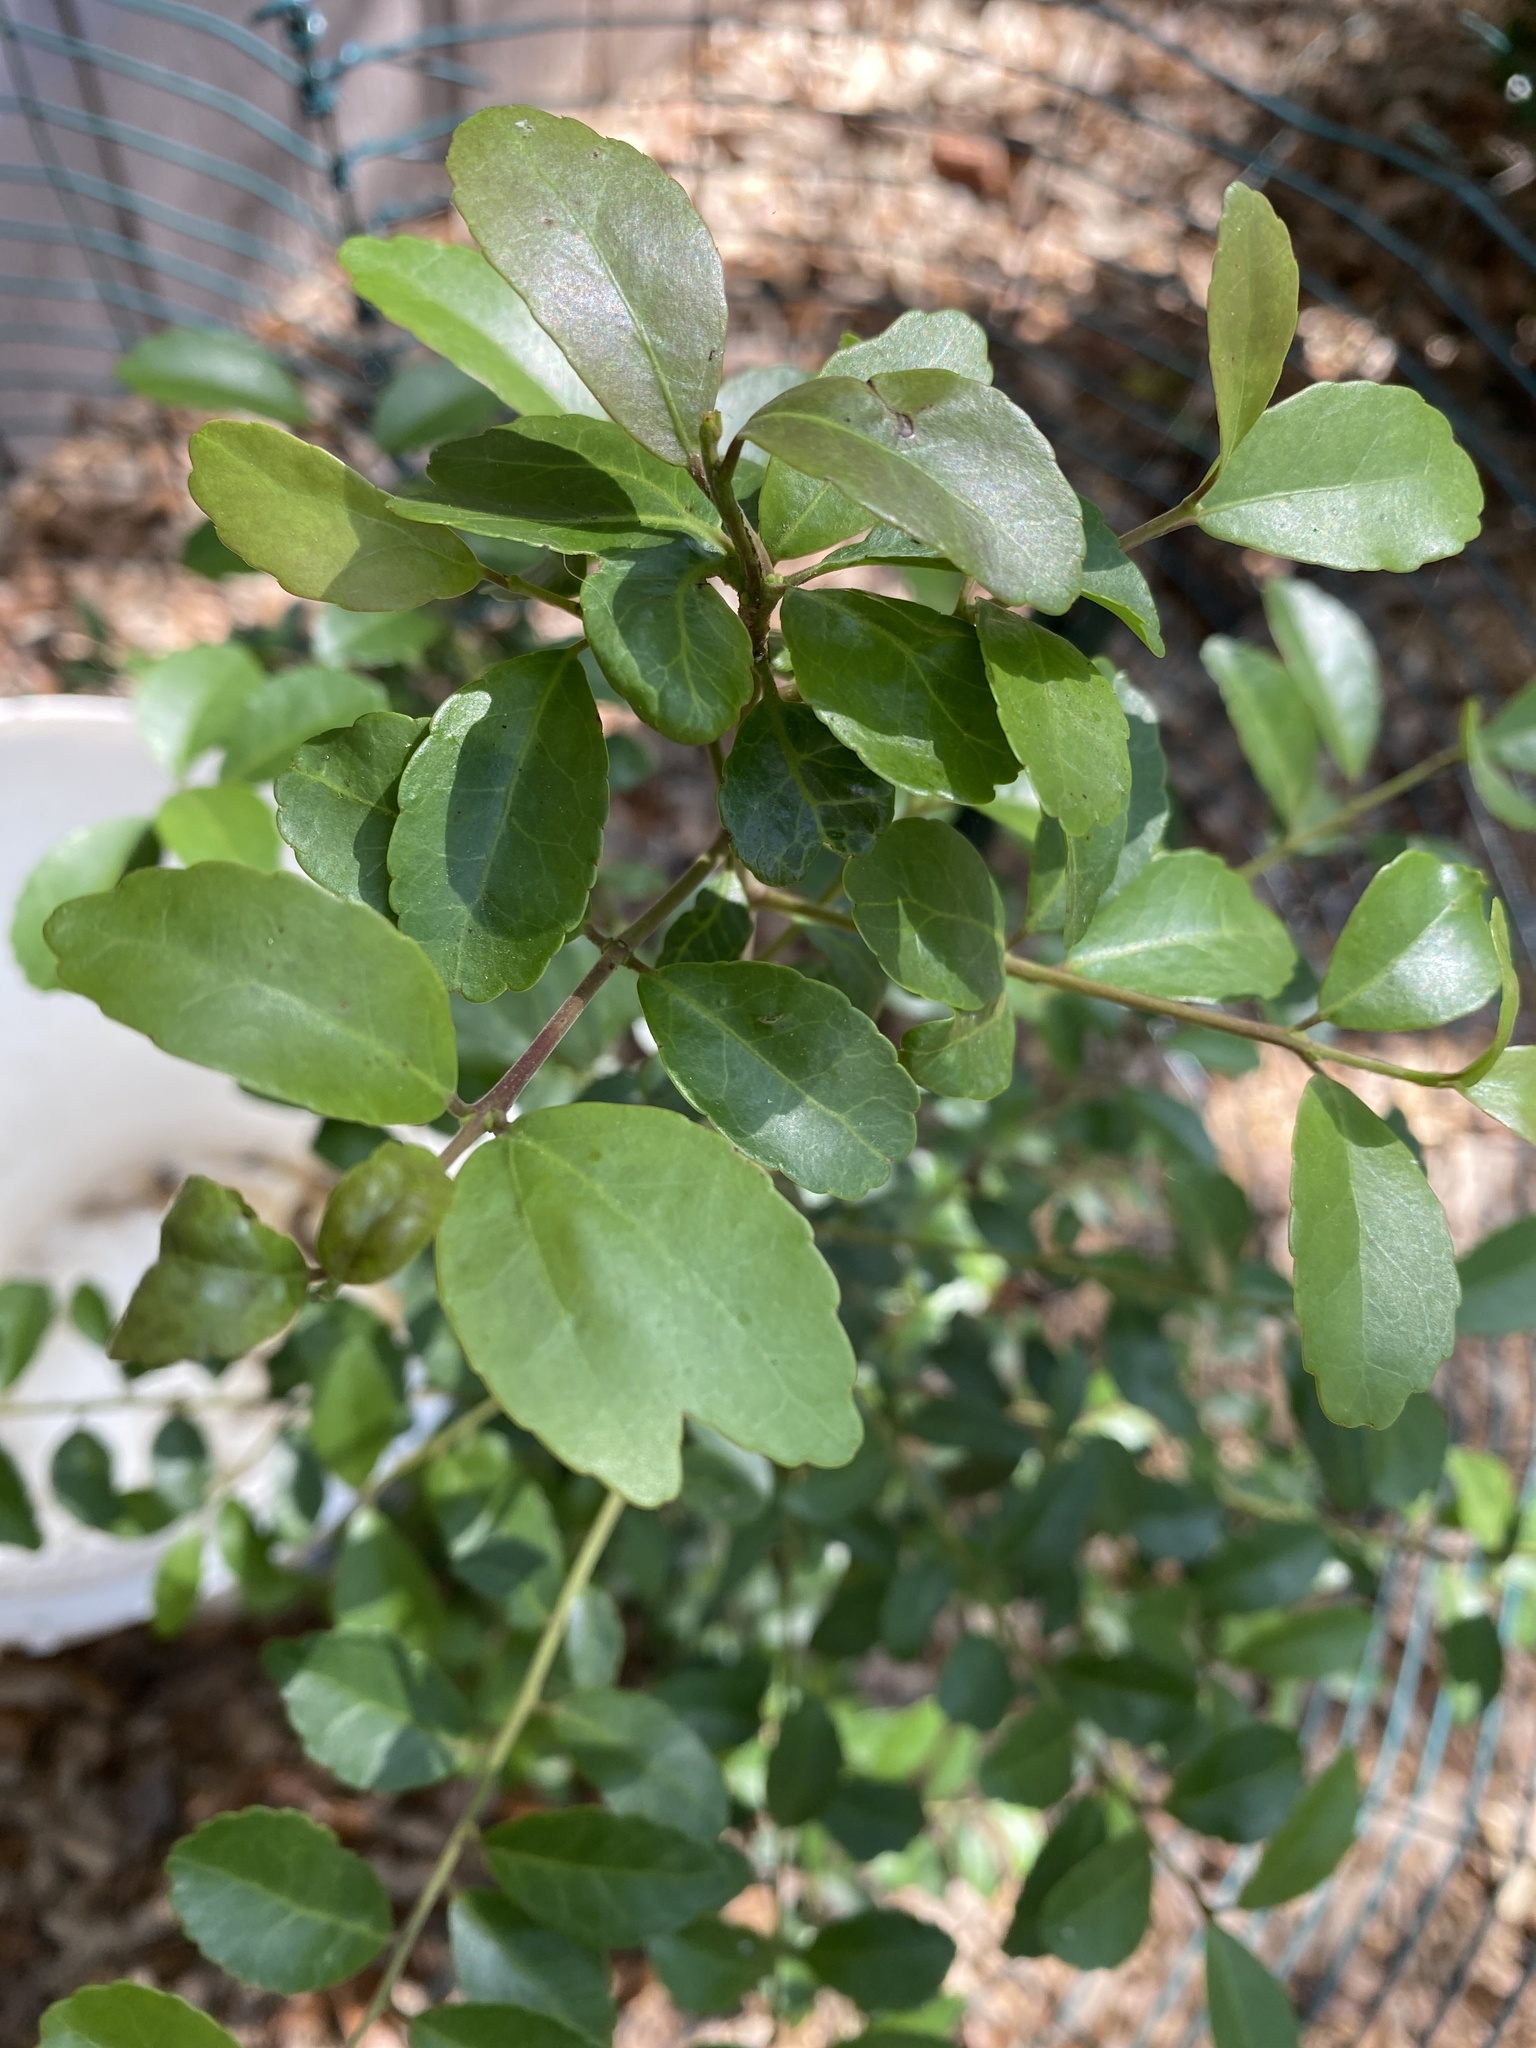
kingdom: Plantae
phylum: Tracheophyta
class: Magnoliopsida
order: Aquifoliales
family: Aquifoliaceae
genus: Ilex
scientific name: Ilex vomitoria
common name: Yaupon holly
